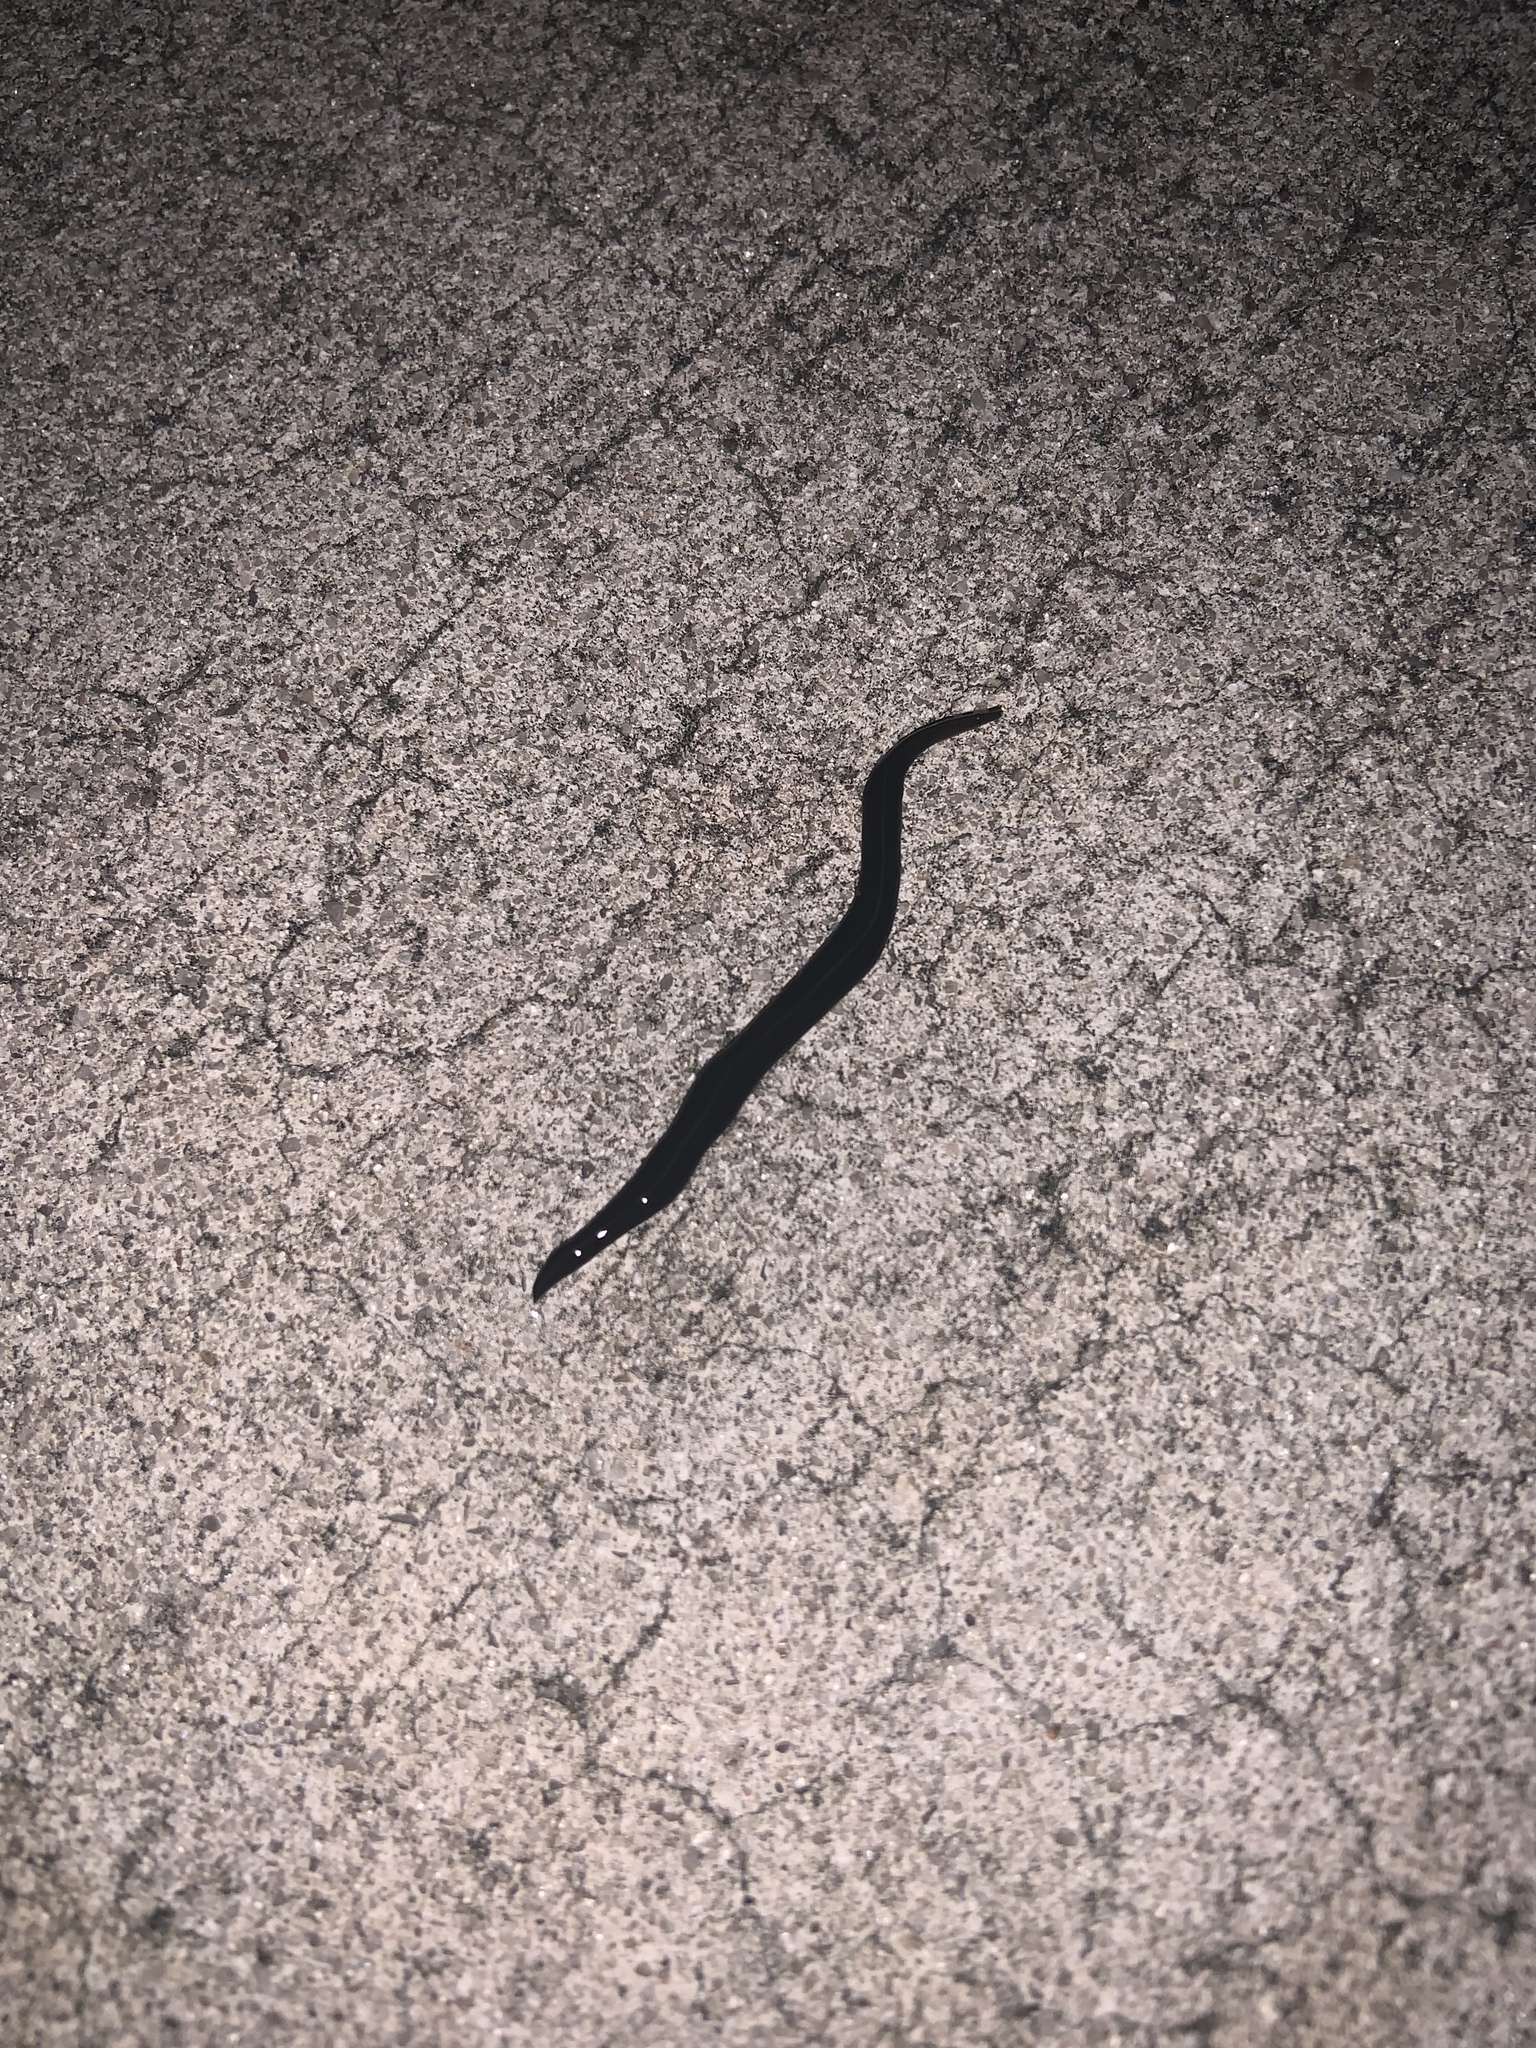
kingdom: Animalia
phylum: Platyhelminthes
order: Tricladida
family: Geoplanidae
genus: Platydemus
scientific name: Platydemus manokwari
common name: New guinea flatworm
